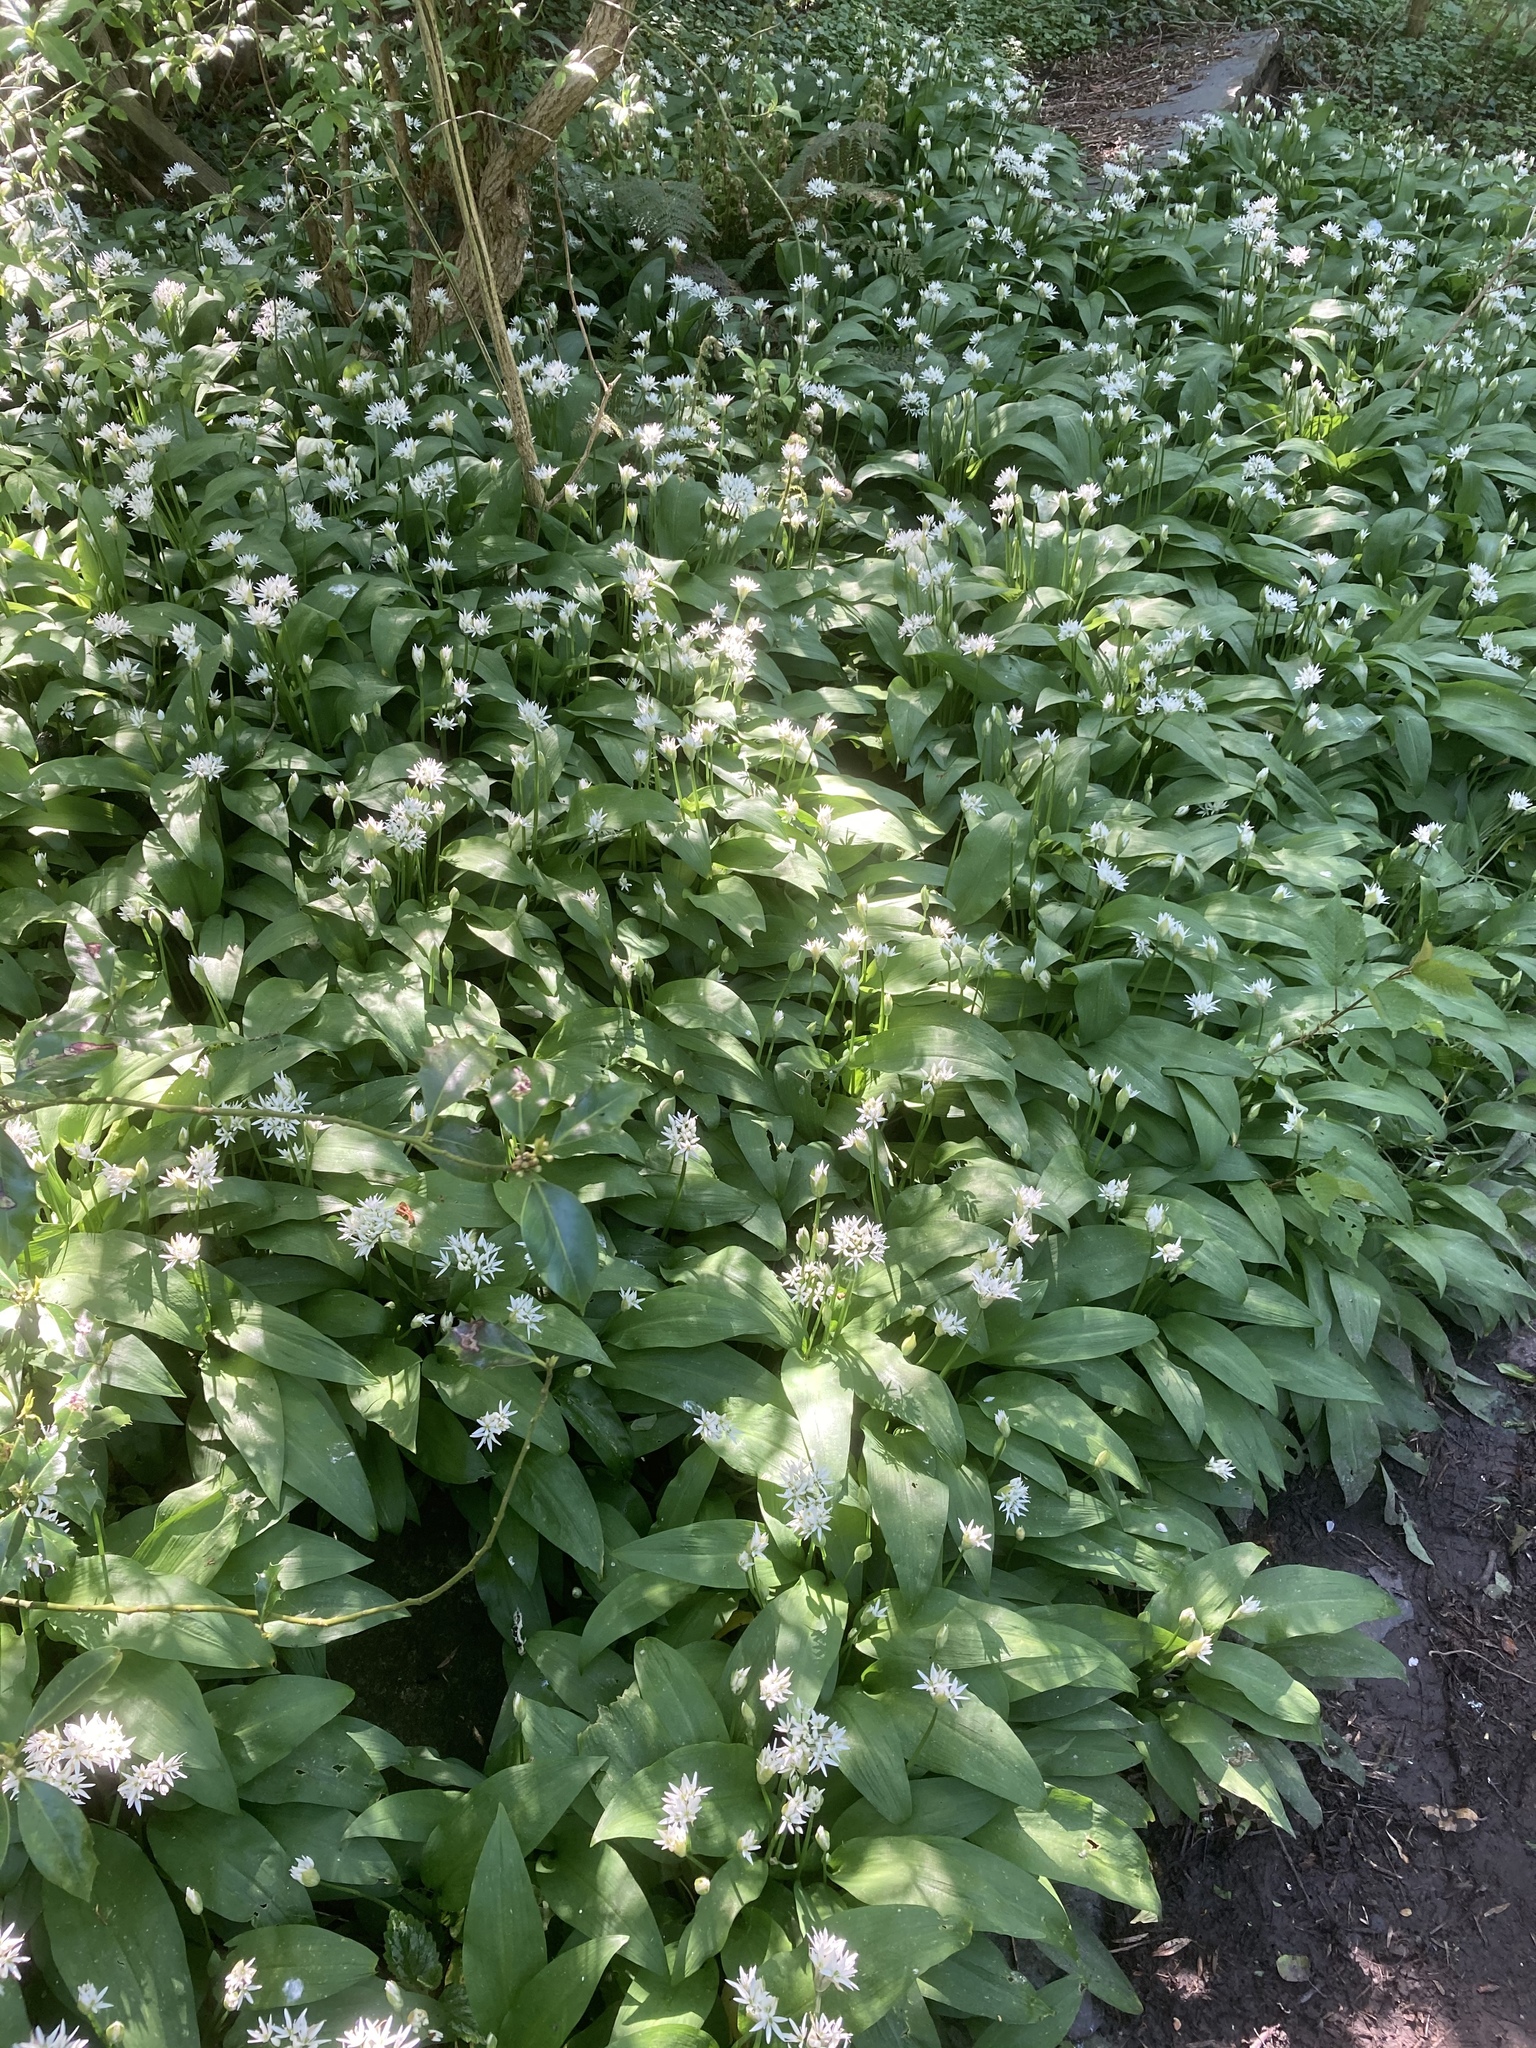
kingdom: Plantae
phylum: Tracheophyta
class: Liliopsida
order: Asparagales
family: Amaryllidaceae
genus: Allium
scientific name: Allium ursinum
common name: Ramsons
